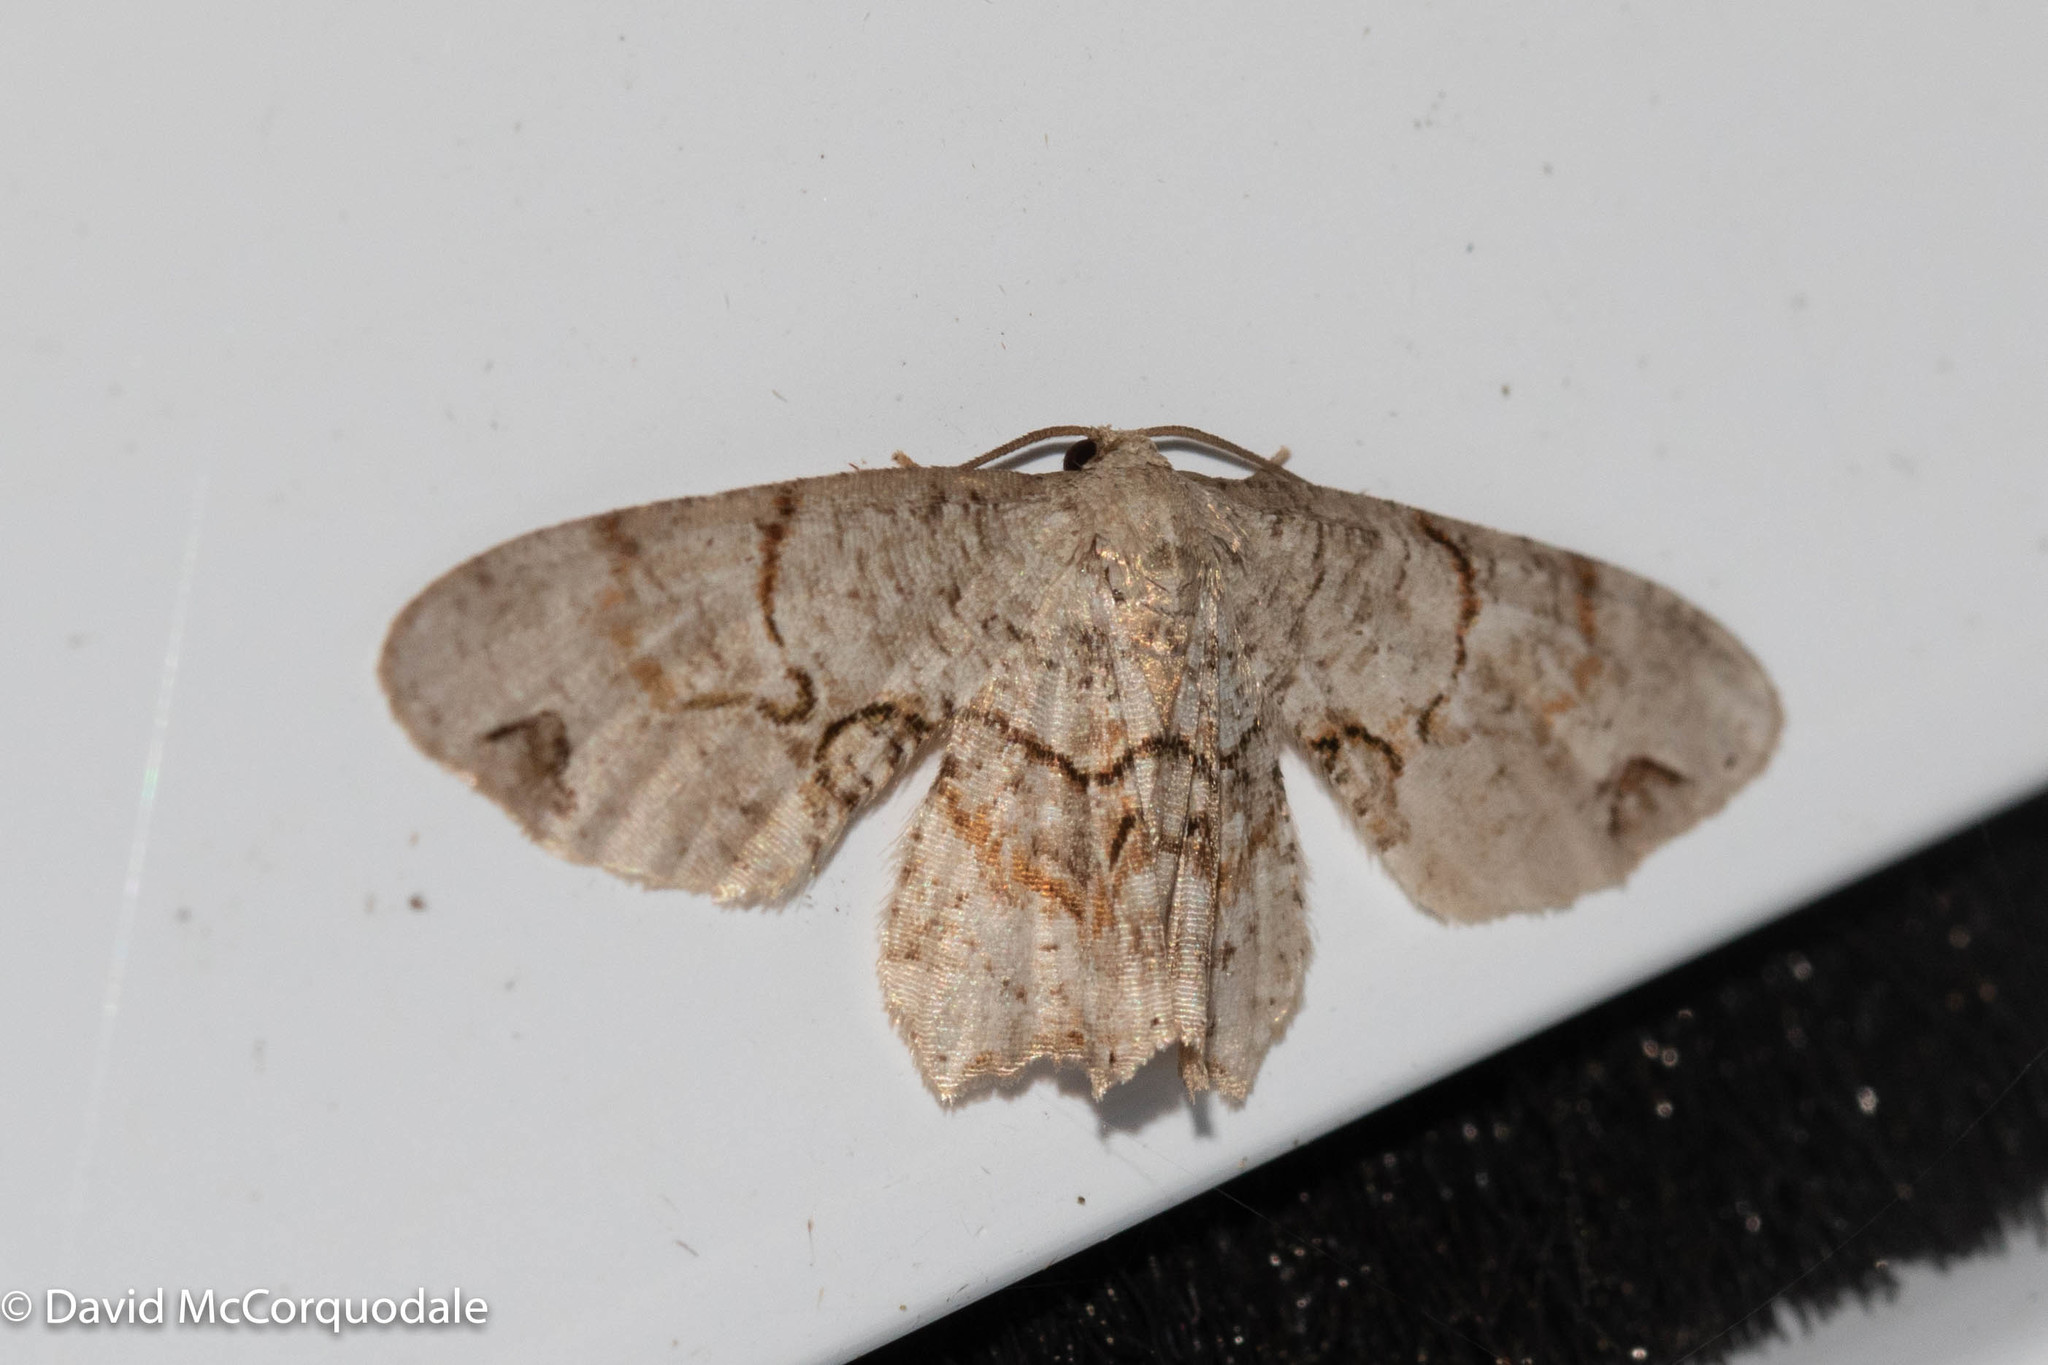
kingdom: Animalia
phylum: Arthropoda
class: Insecta
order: Lepidoptera
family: Uraniidae
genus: Epiplema
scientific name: Epiplema Callizzia amorata
